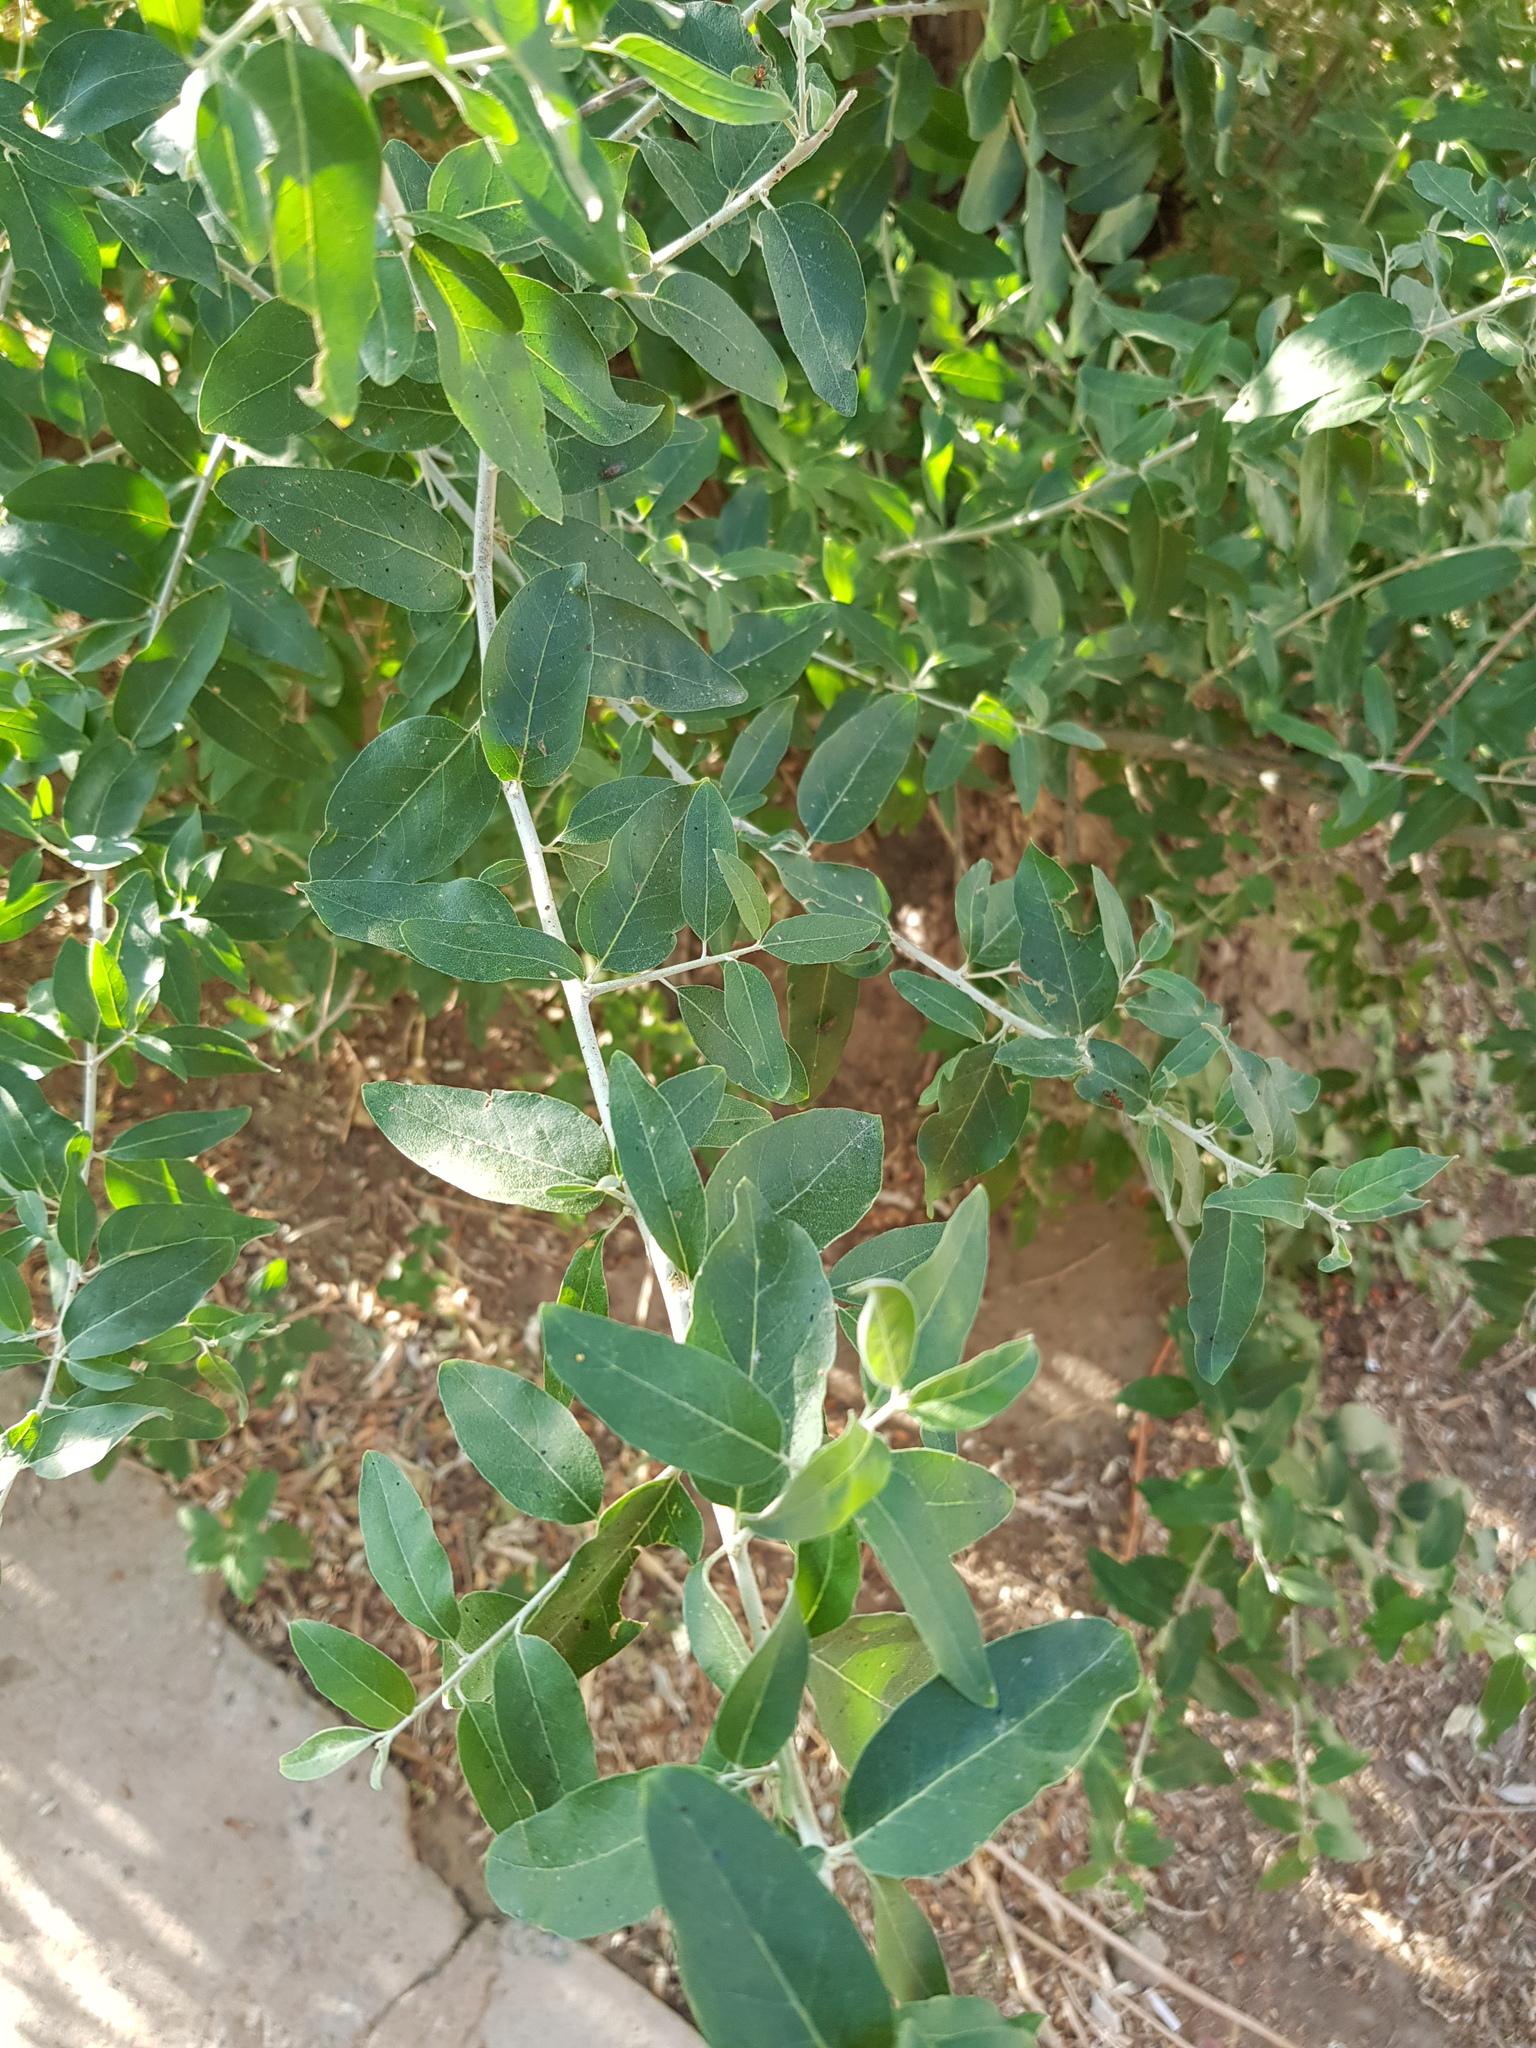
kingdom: Plantae
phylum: Tracheophyta
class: Magnoliopsida
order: Rosales
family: Elaeagnaceae
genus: Elaeagnus
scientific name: Elaeagnus angustifolia
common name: Russian olive
